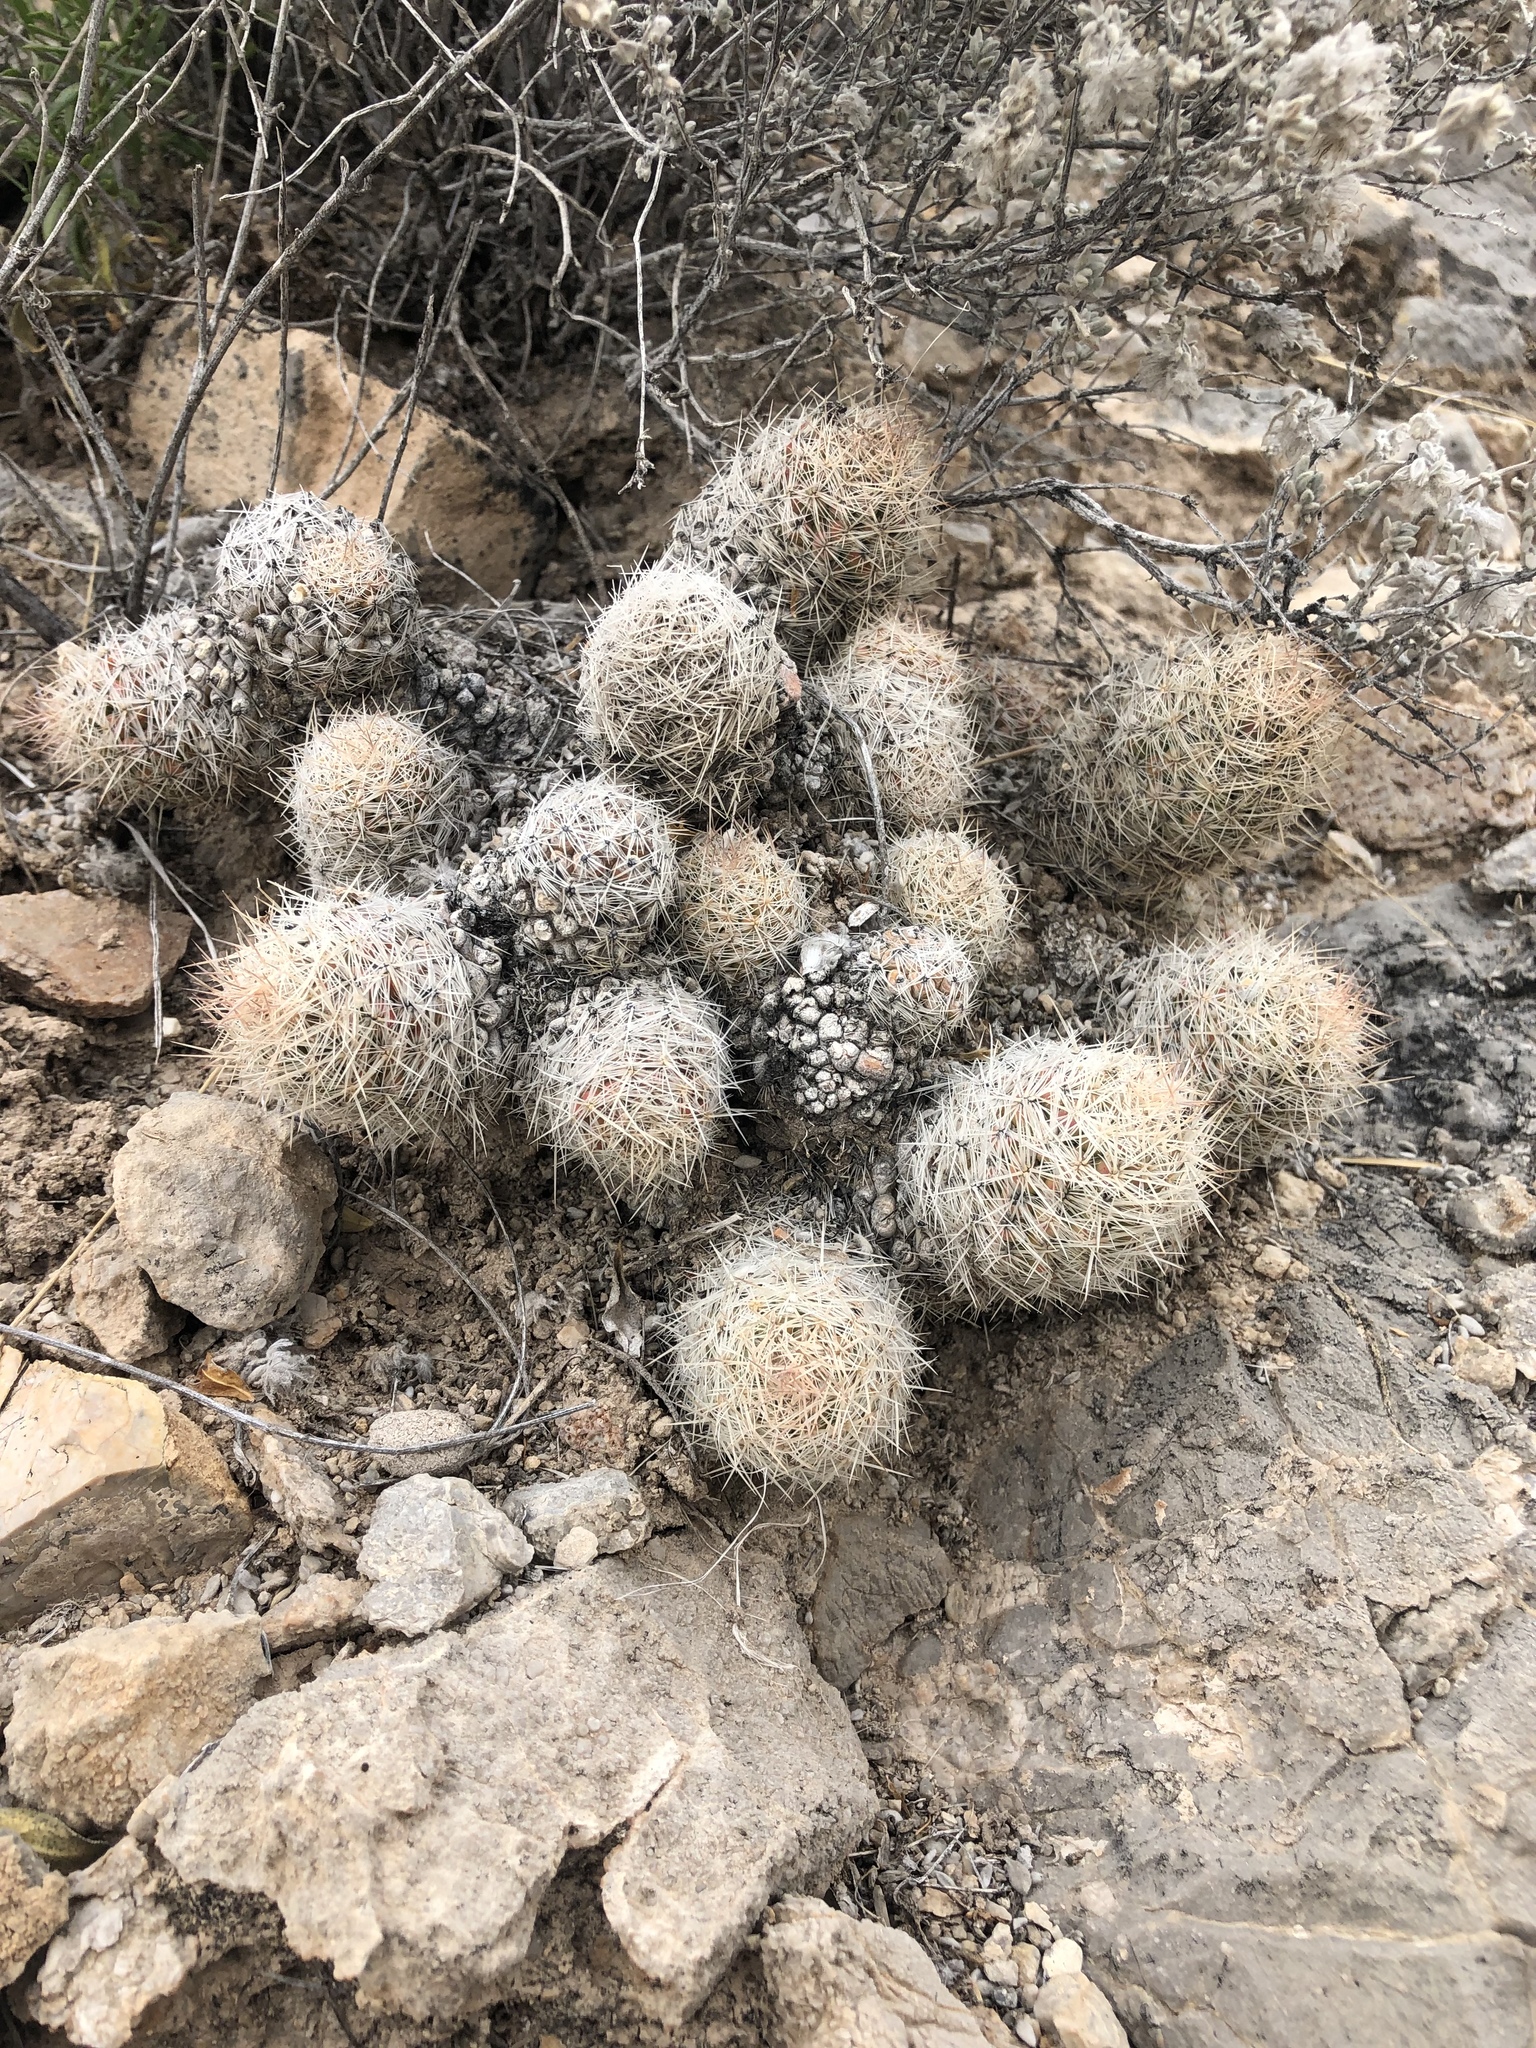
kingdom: Plantae
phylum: Tracheophyta
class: Magnoliopsida
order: Caryophyllales
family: Cactaceae
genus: Pelecyphora
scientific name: Pelecyphora tuberculosa
